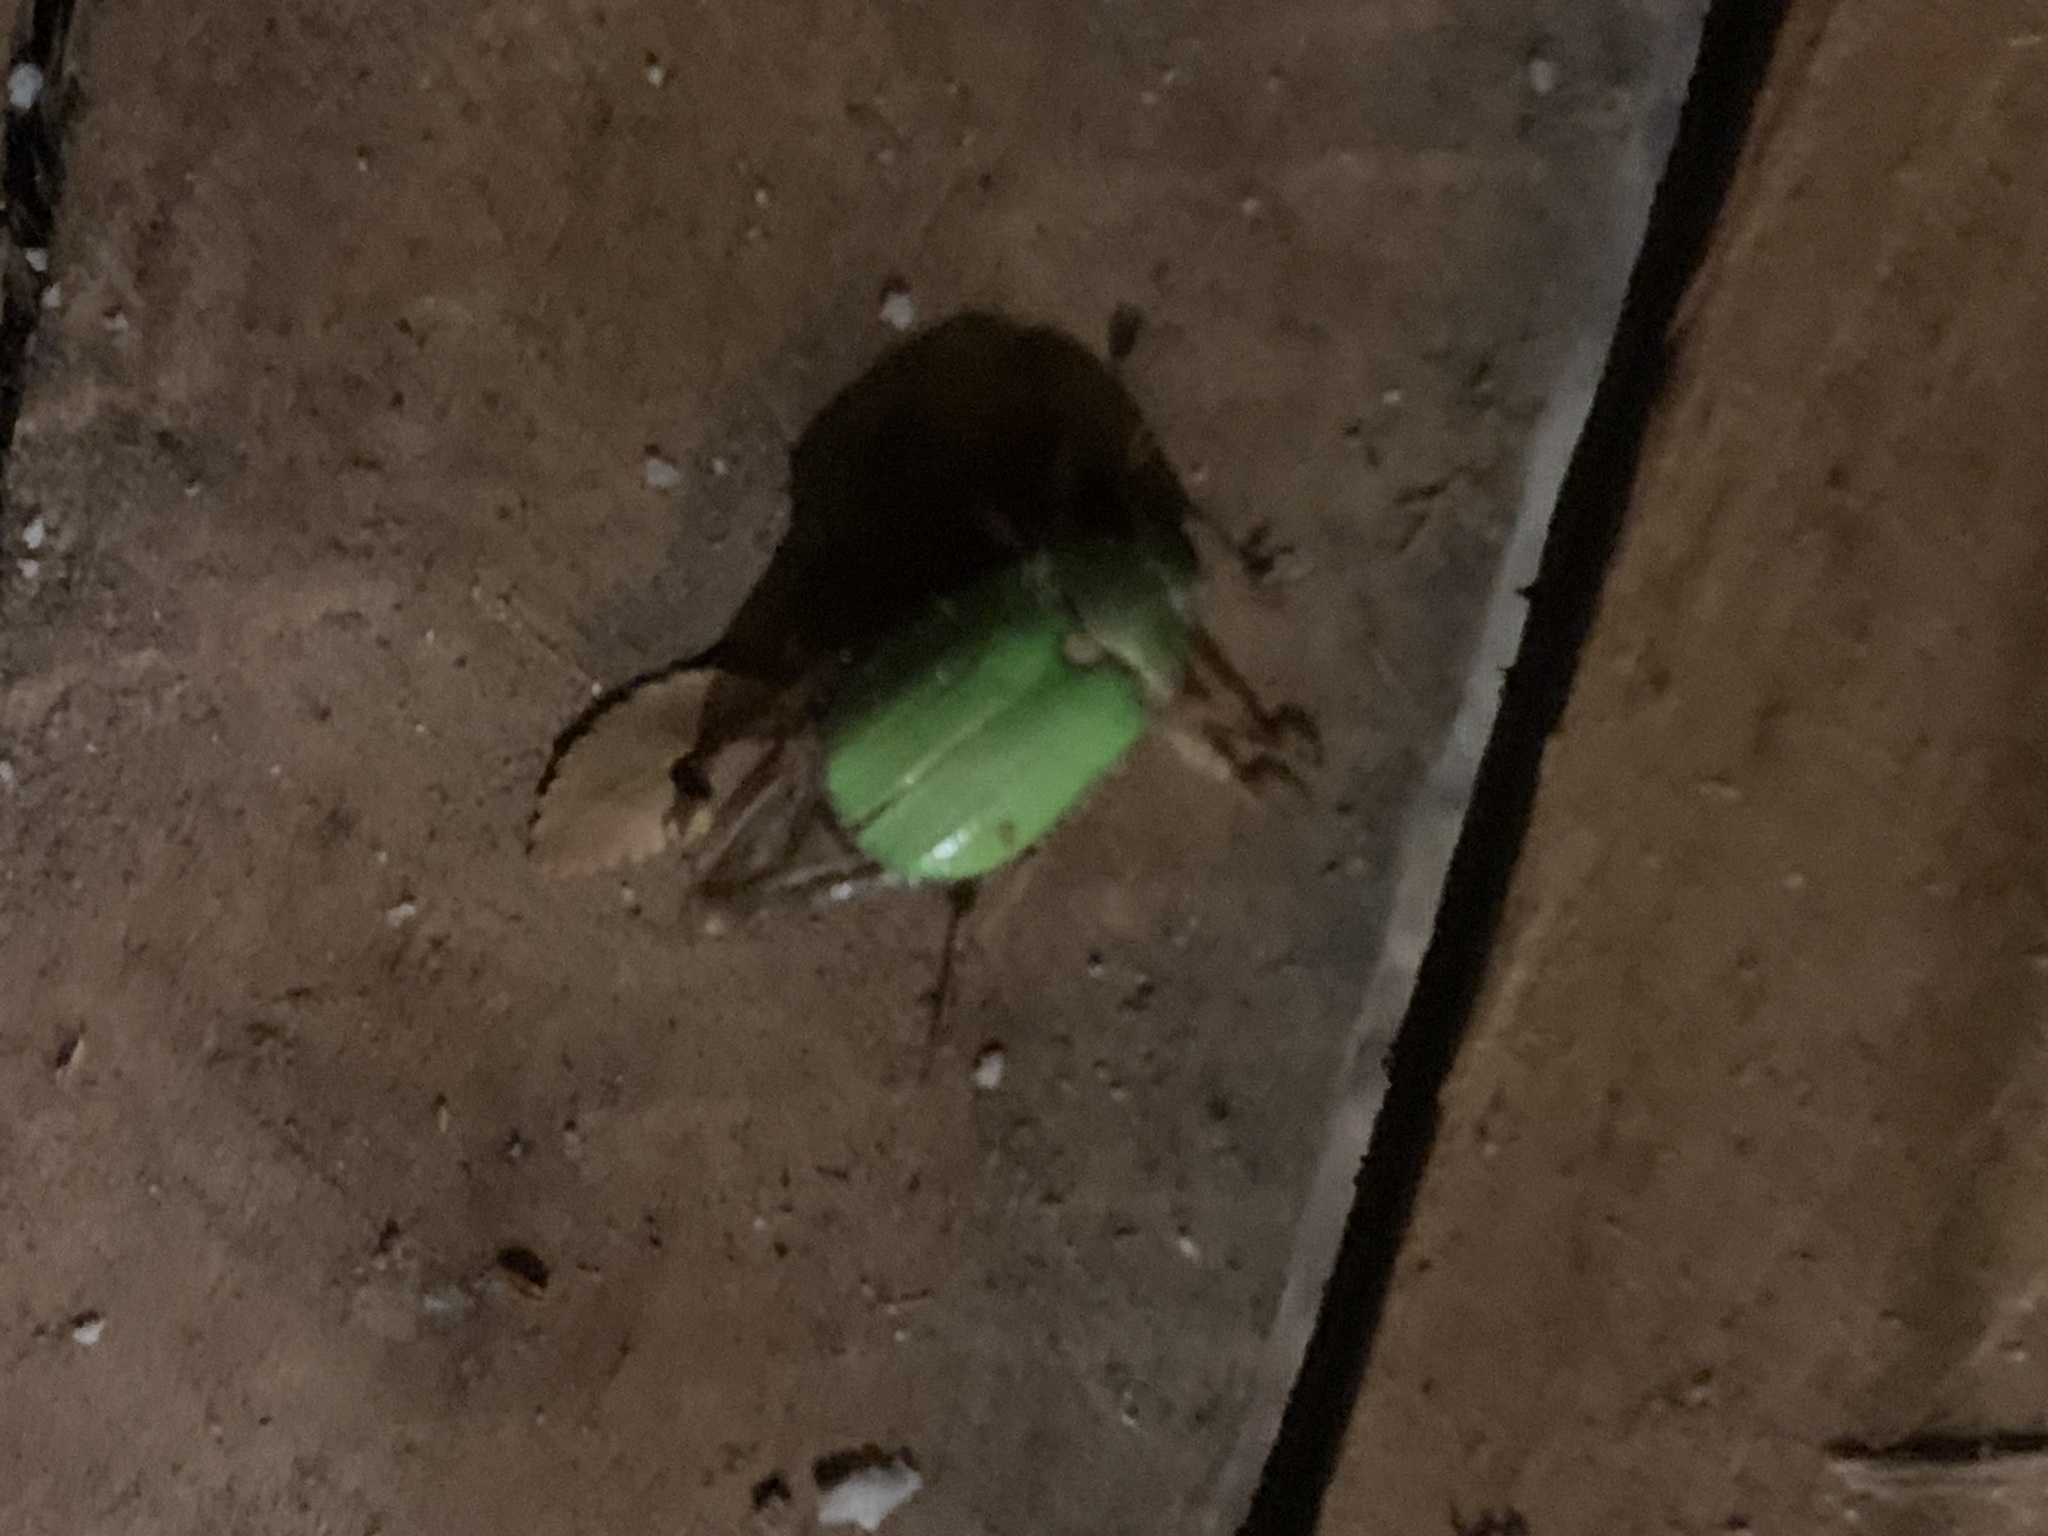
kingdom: Animalia
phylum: Arthropoda
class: Insecta
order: Coleoptera
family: Scarabaeidae
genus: Brachysternus
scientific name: Brachysternus prasinus
